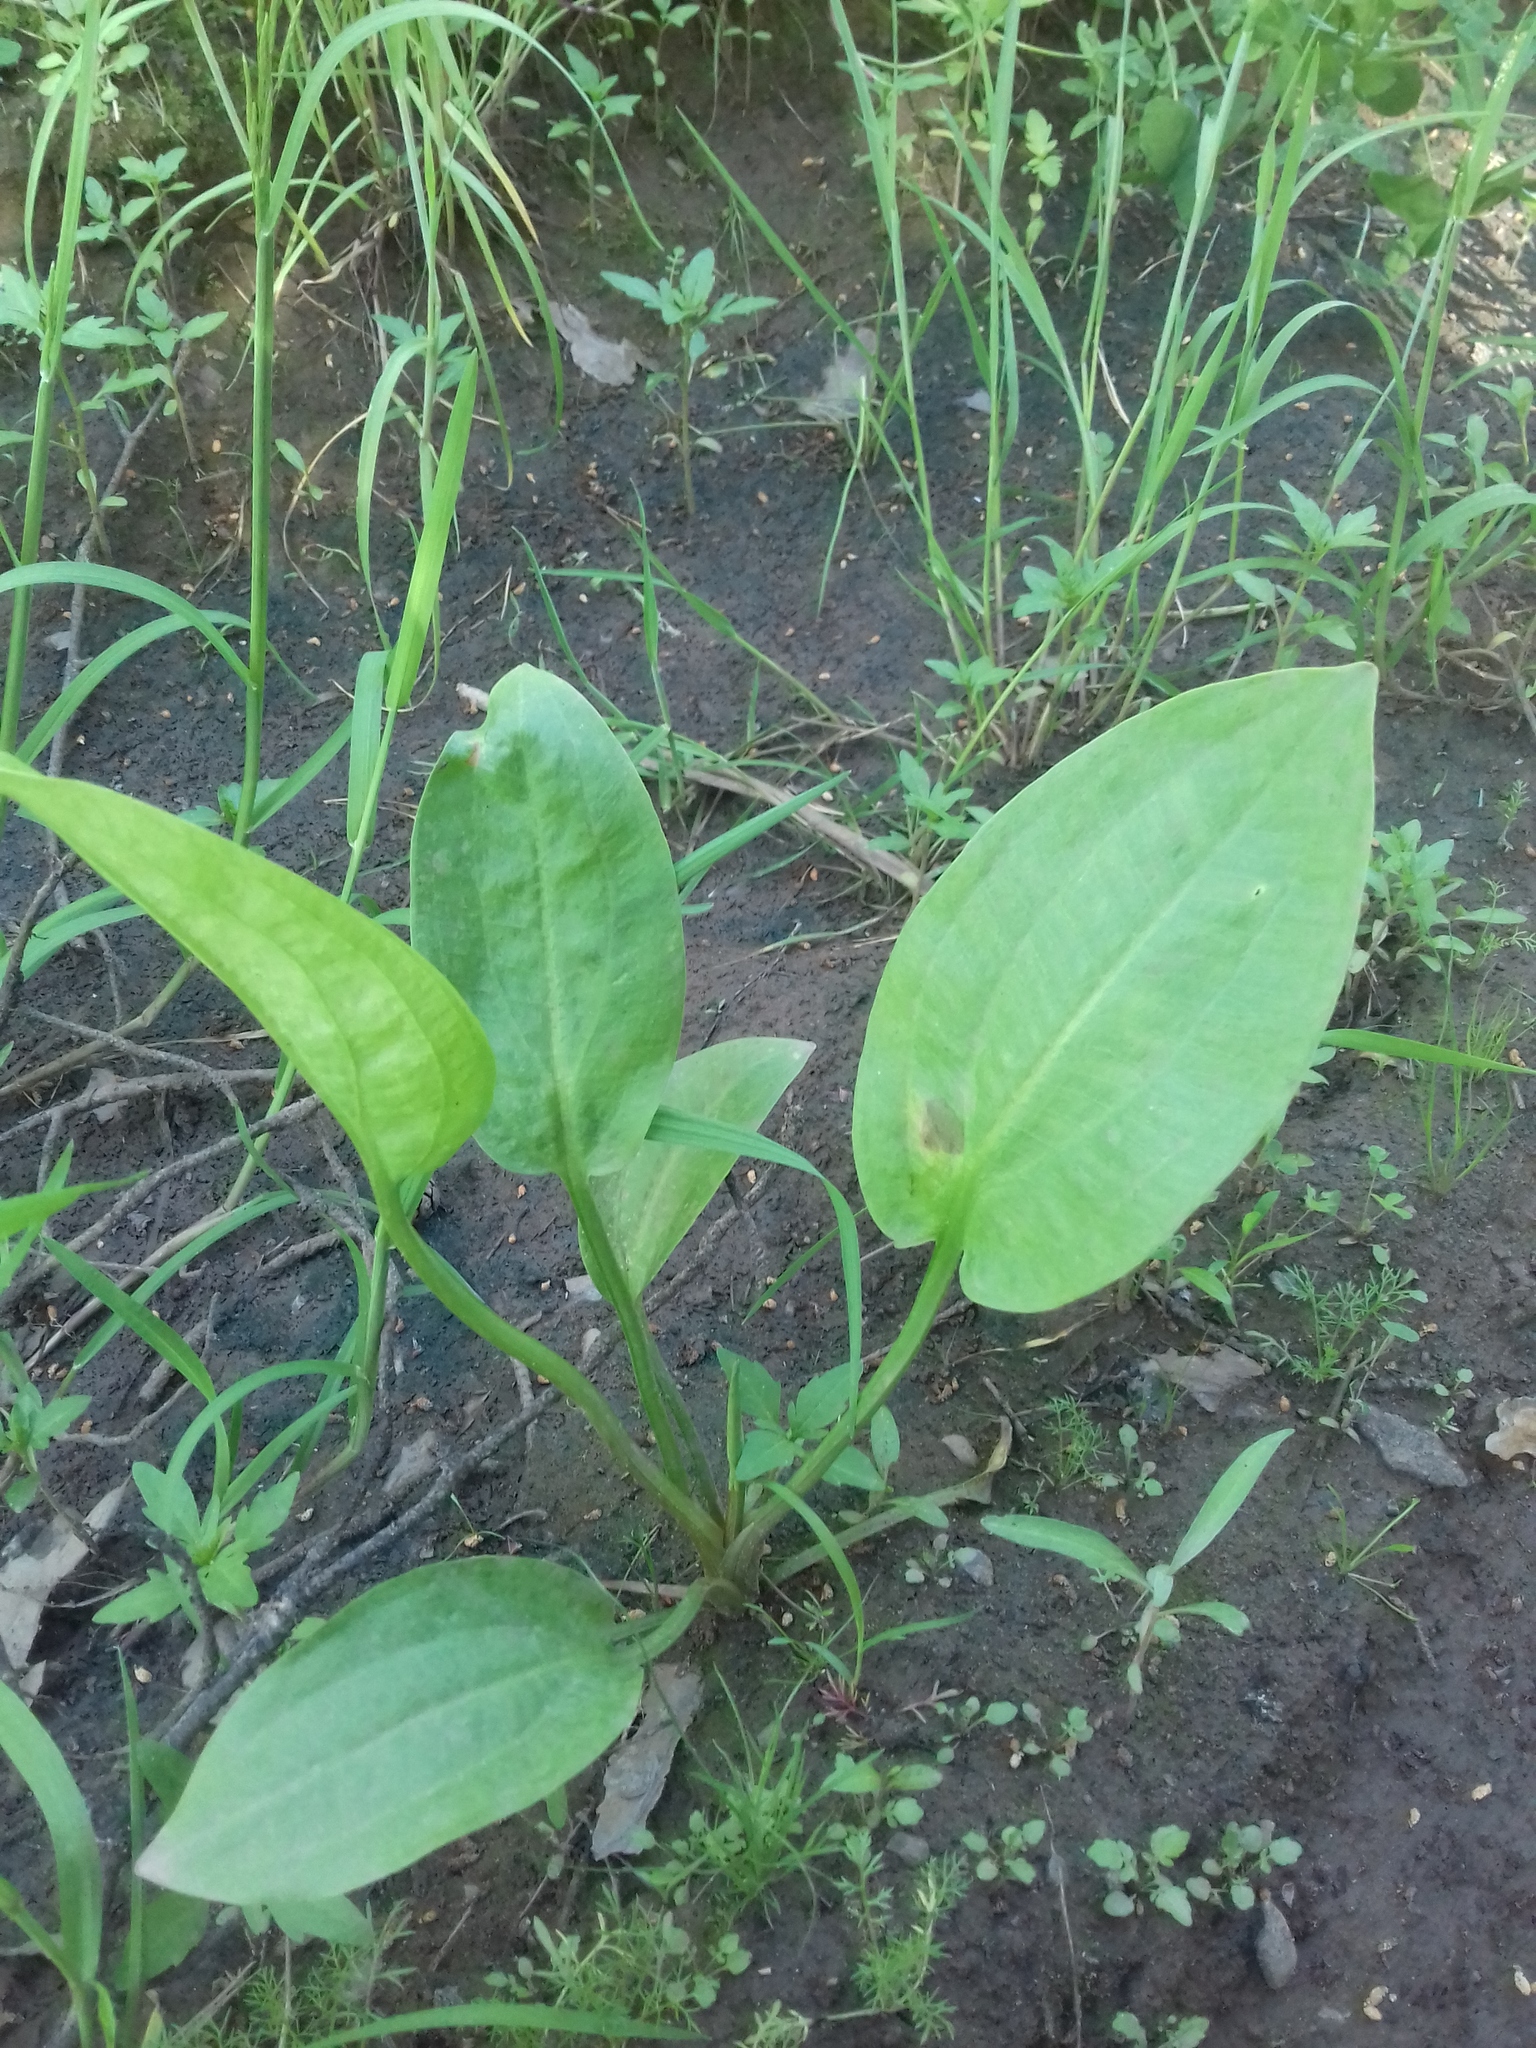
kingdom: Plantae
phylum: Tracheophyta
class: Liliopsida
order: Alismatales
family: Alismataceae
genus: Alisma
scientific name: Alisma plantago-aquatica
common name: Water-plantain
